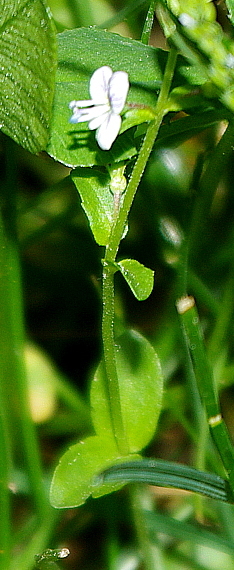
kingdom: Plantae
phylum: Tracheophyta
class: Magnoliopsida
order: Lamiales
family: Plantaginaceae
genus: Veronica
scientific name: Veronica serpyllifolia
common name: Thyme-leaved speedwell
